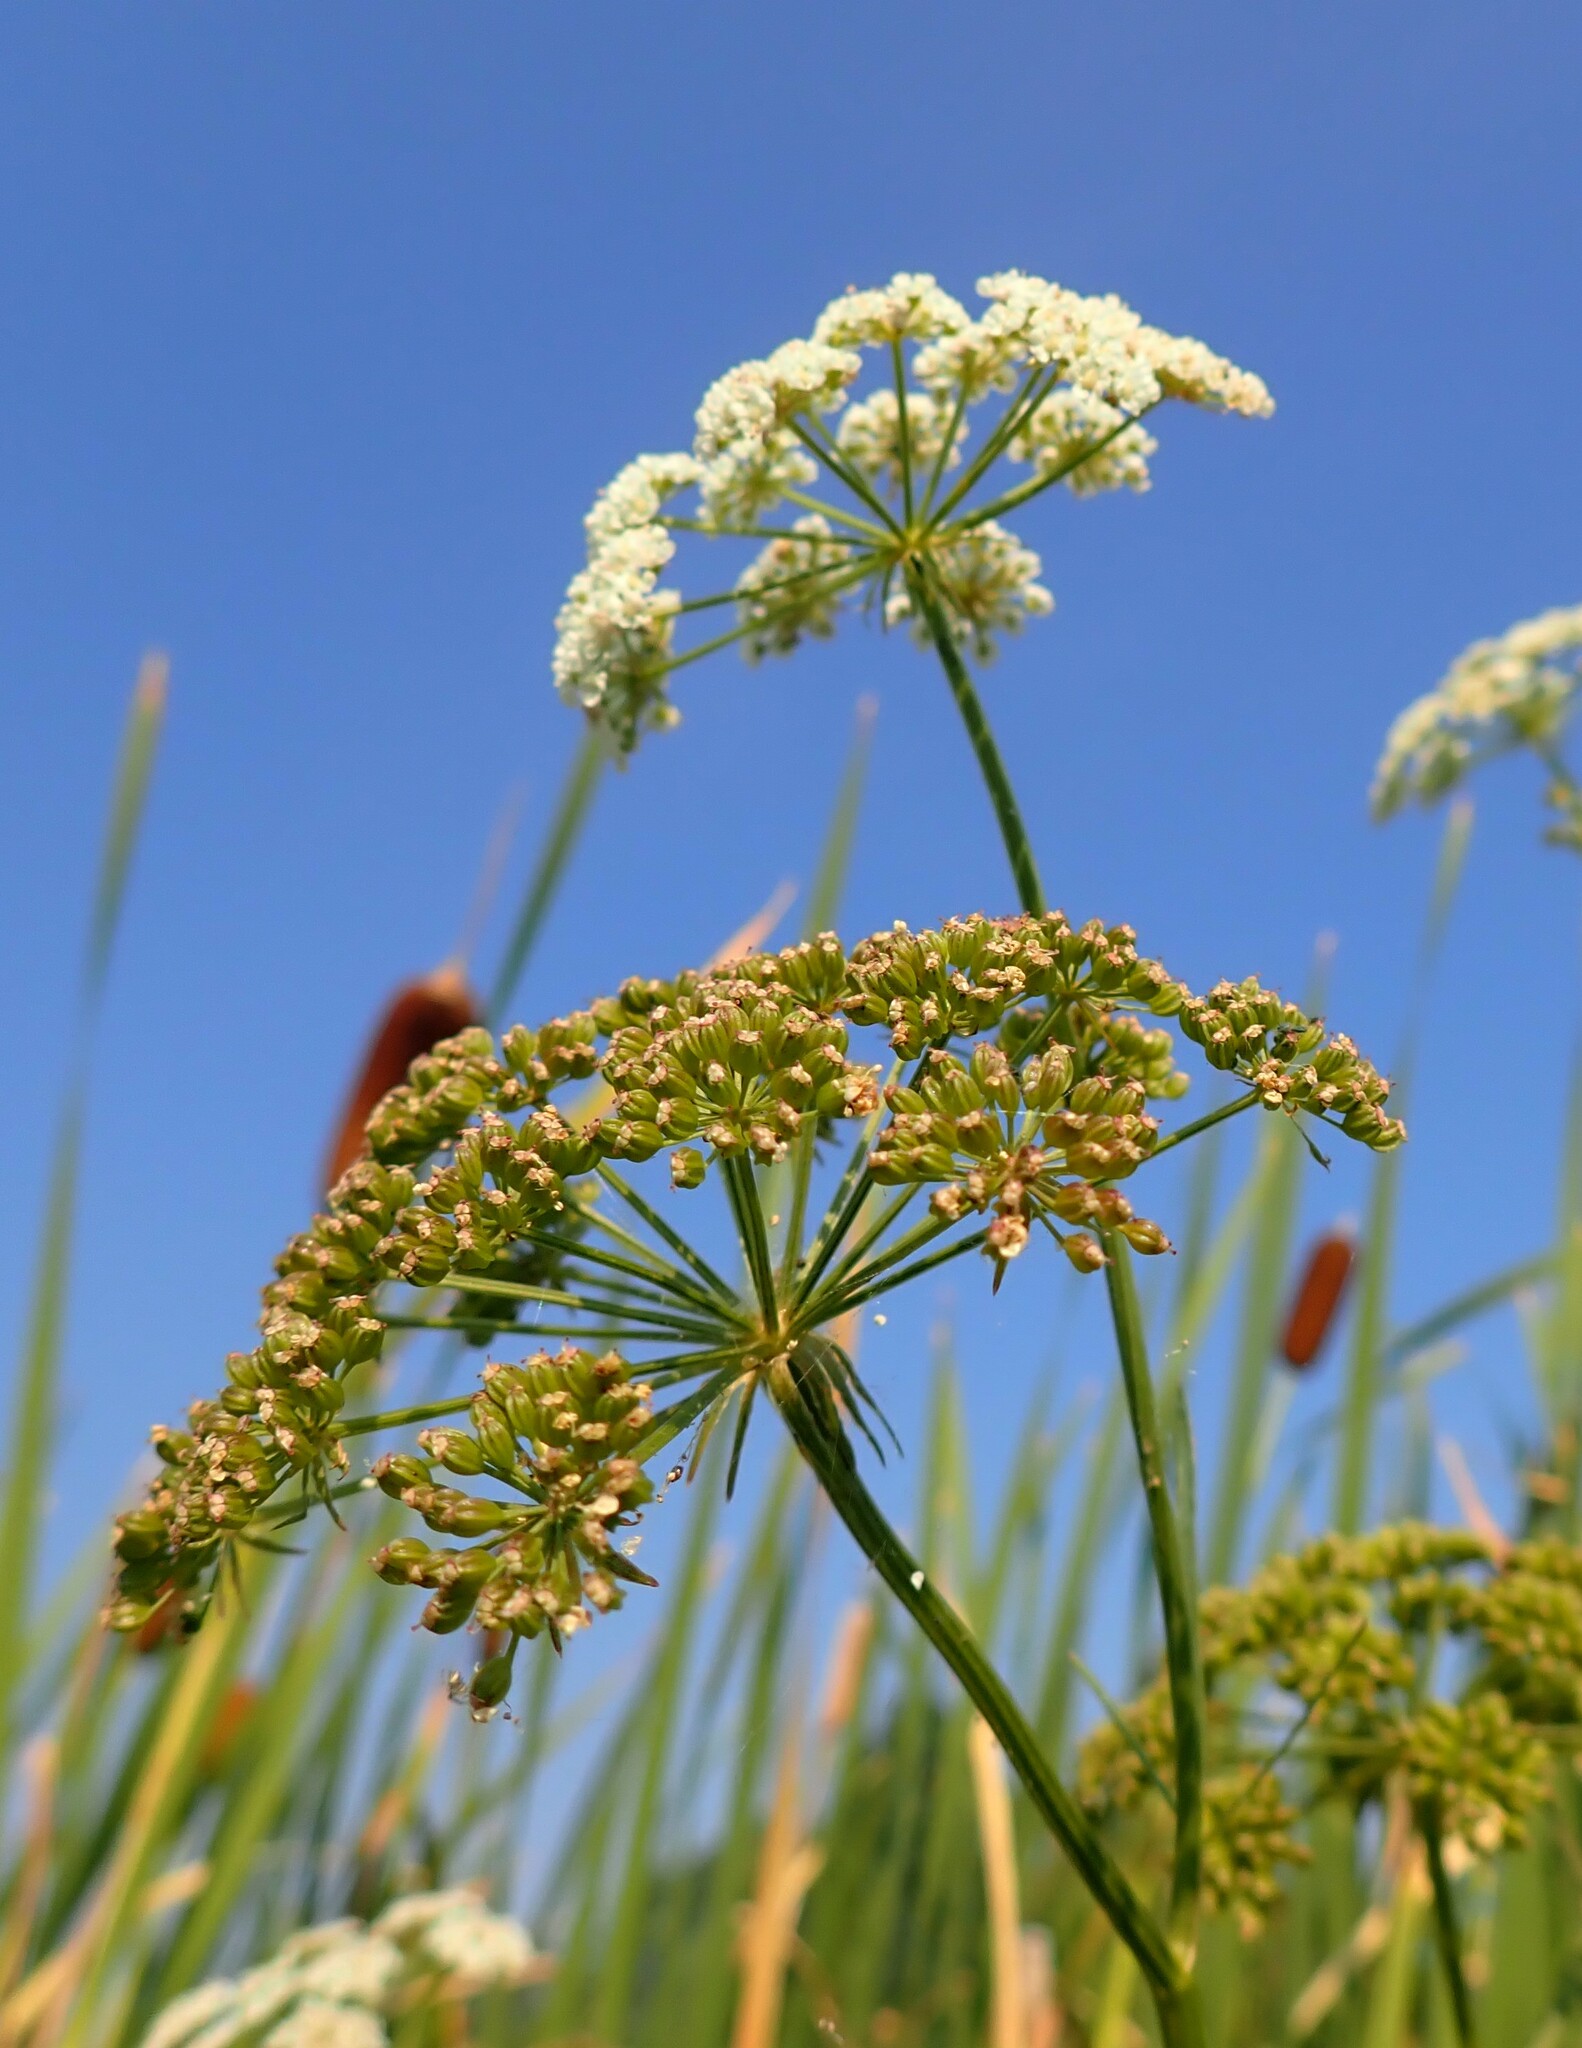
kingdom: Plantae
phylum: Tracheophyta
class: Magnoliopsida
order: Apiales
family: Apiaceae
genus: Sium
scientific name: Sium suave
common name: Hemlock water-parsnip
